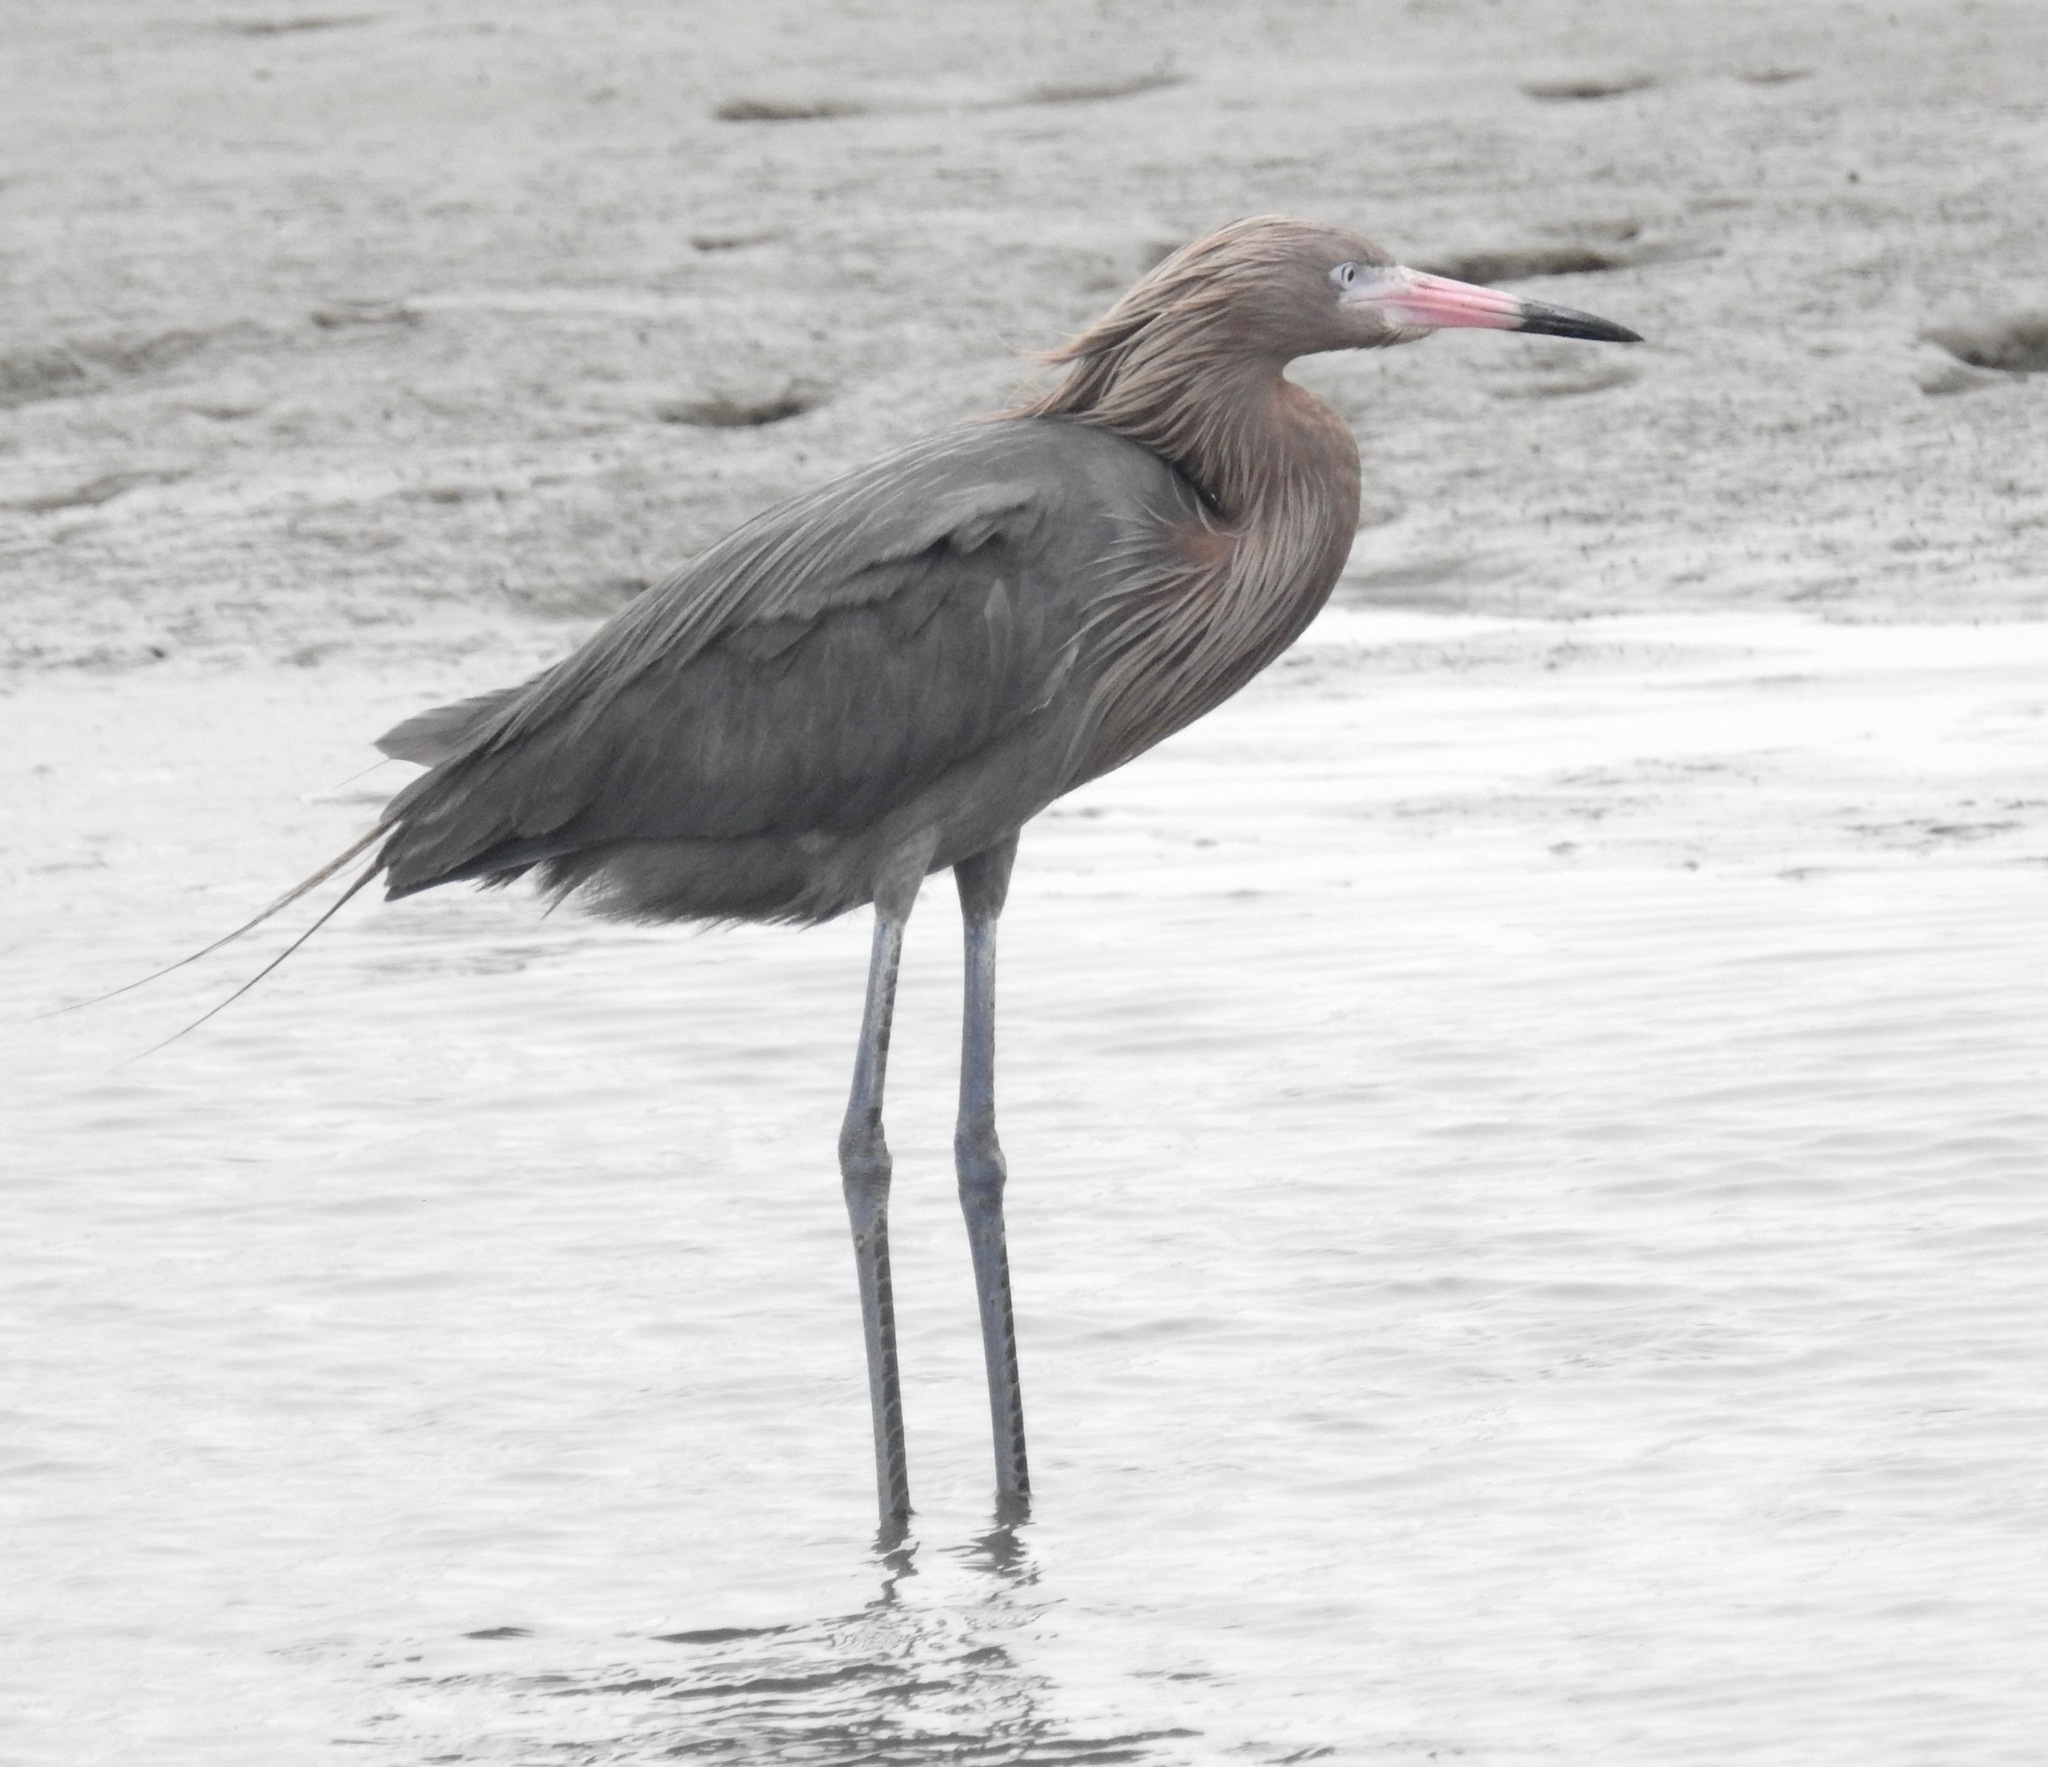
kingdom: Animalia
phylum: Chordata
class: Aves
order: Pelecaniformes
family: Ardeidae
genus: Egretta
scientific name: Egretta rufescens
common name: Reddish egret
